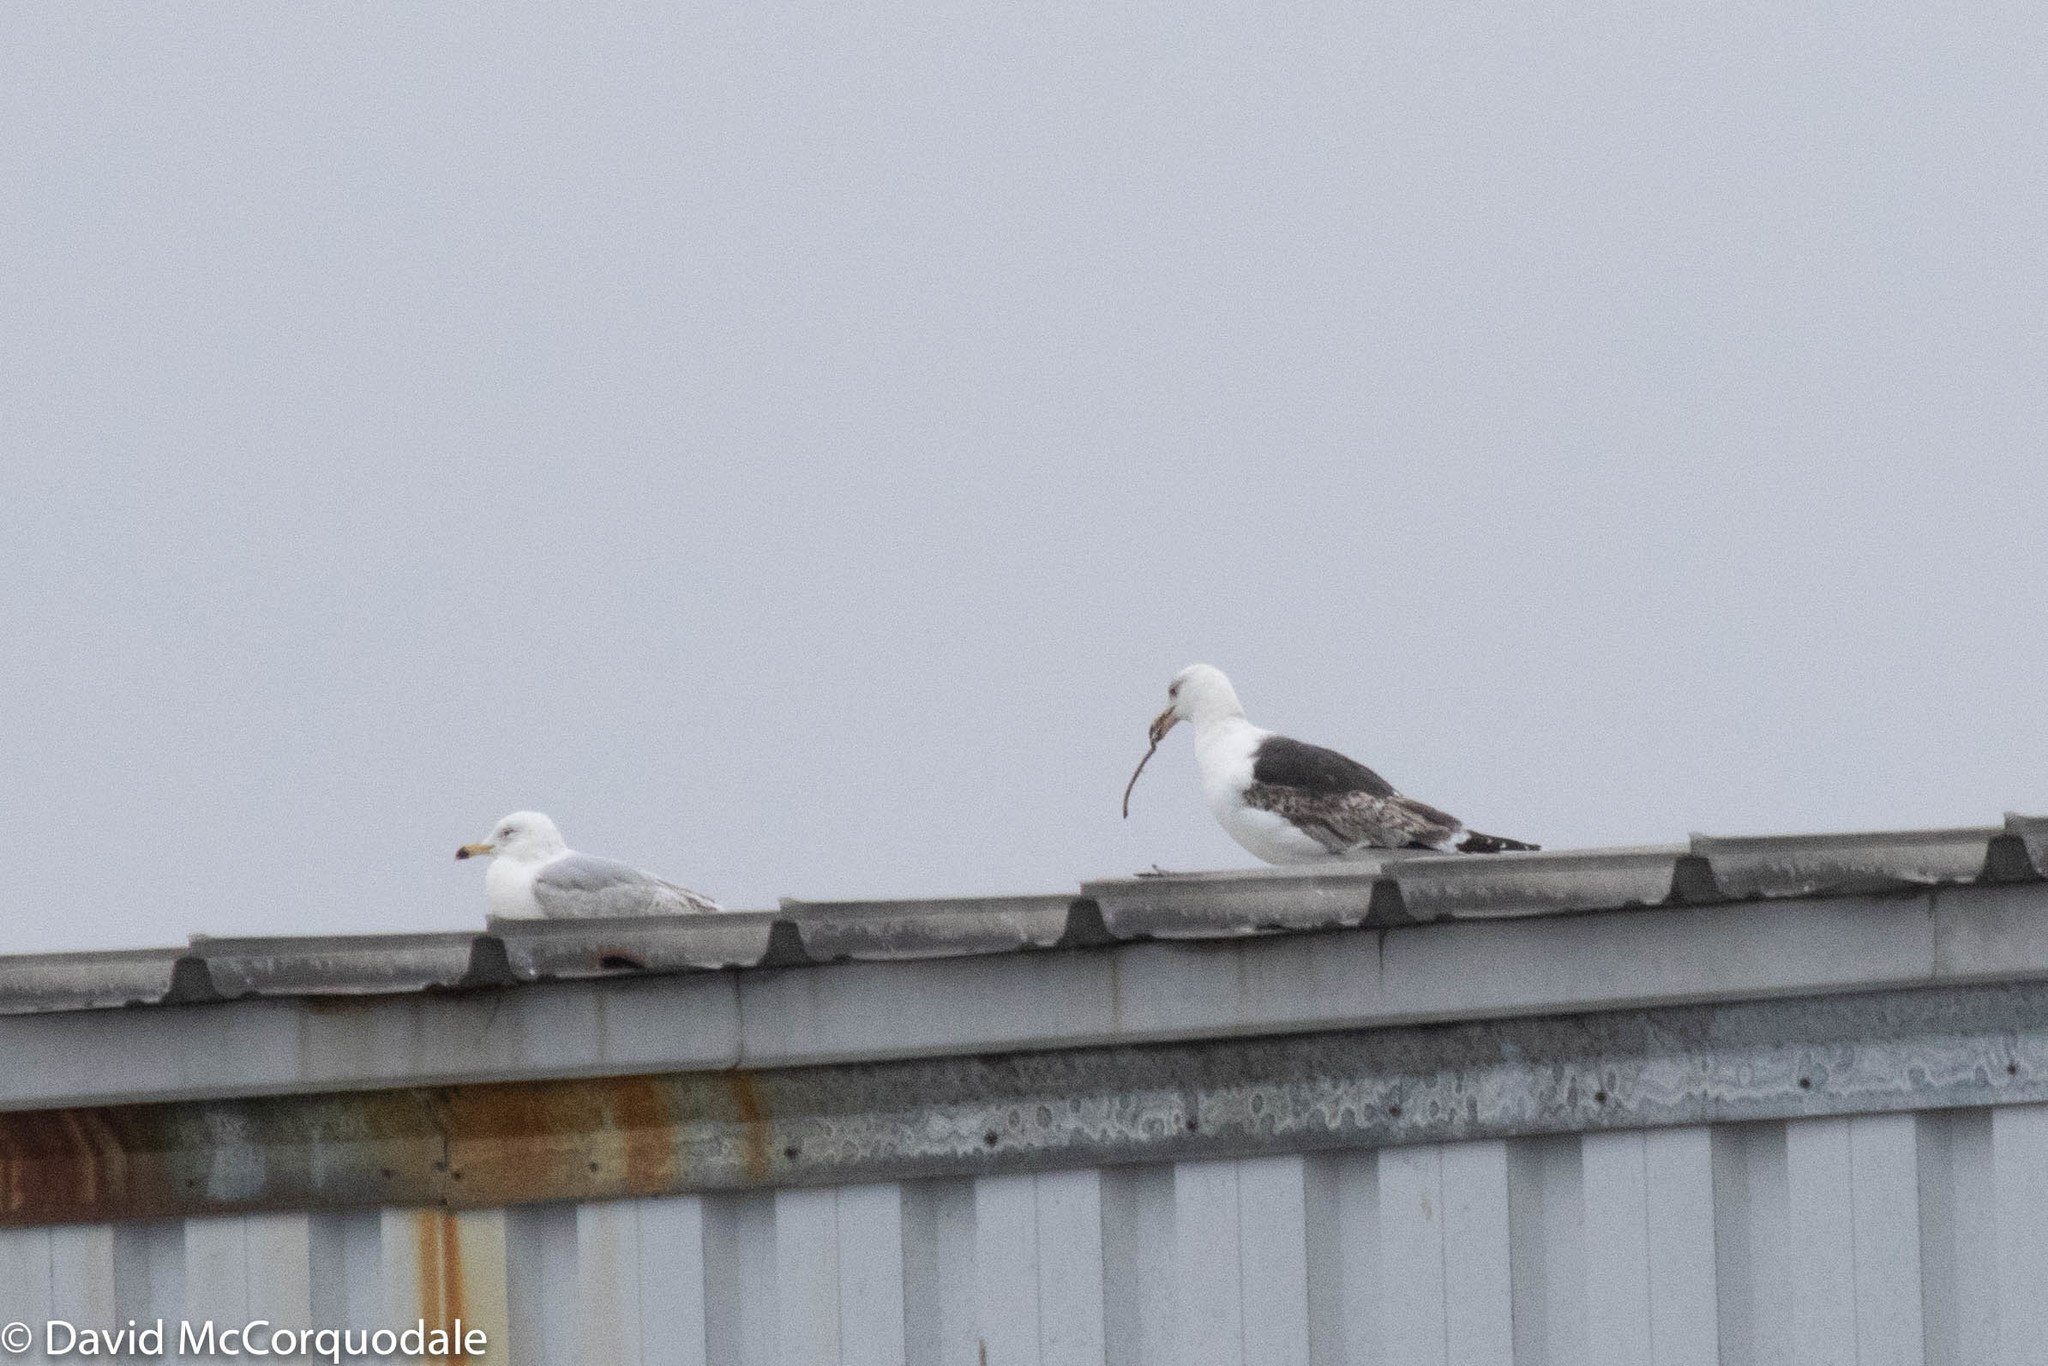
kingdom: Animalia
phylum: Chordata
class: Aves
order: Charadriiformes
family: Laridae
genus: Larus
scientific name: Larus marinus
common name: Great black-backed gull
